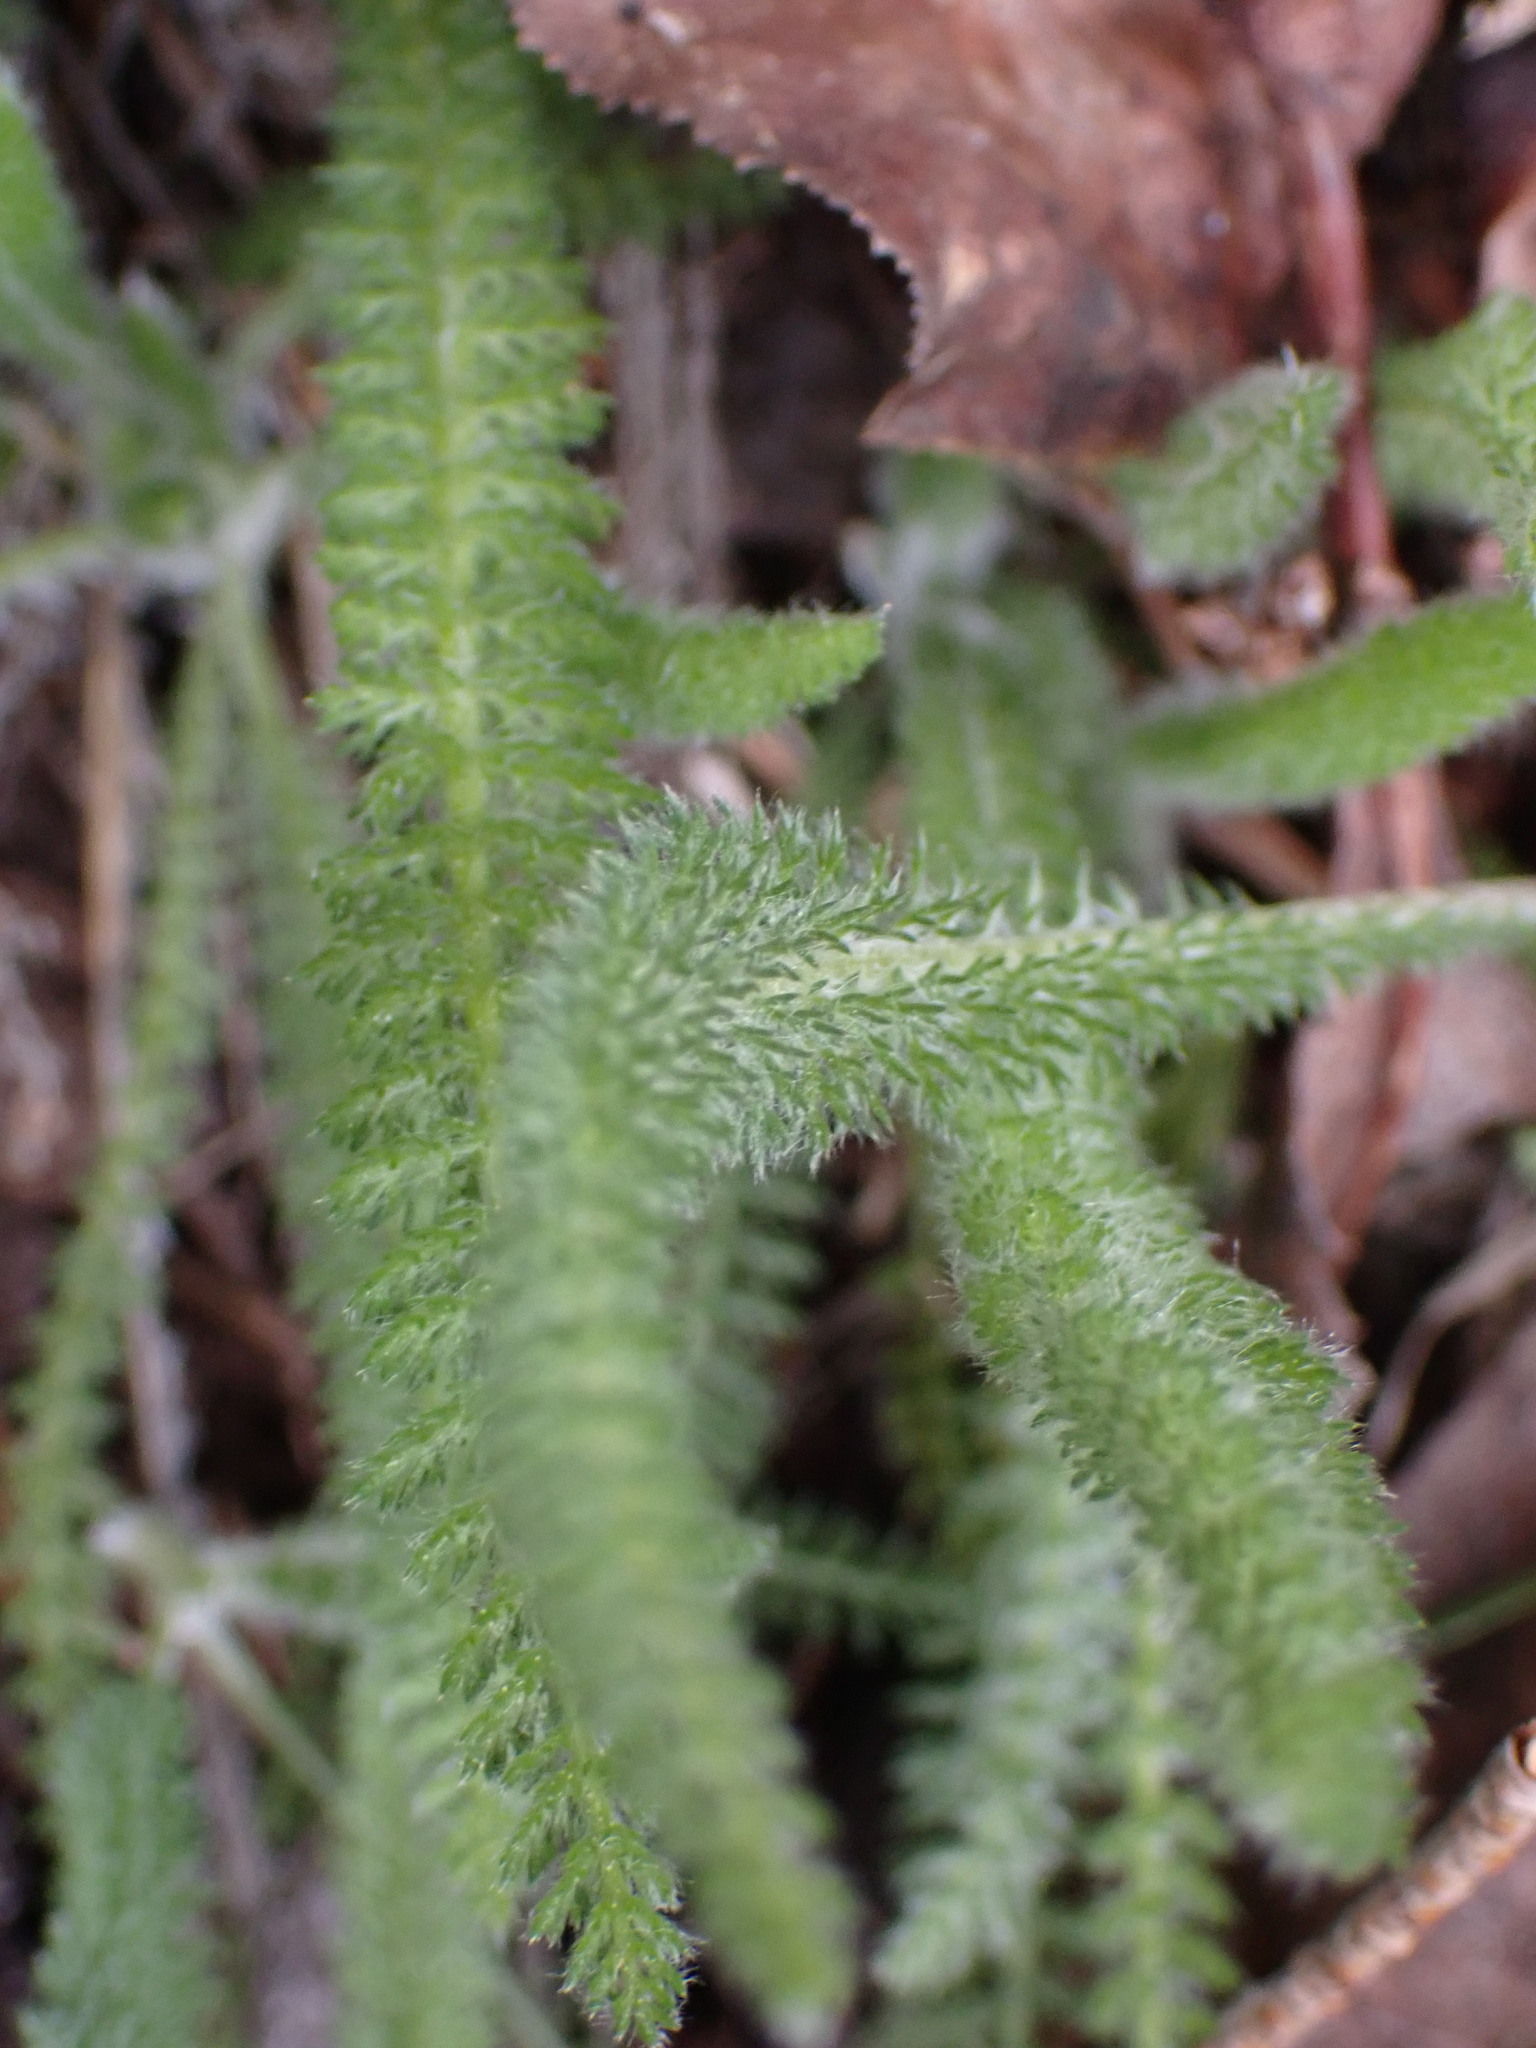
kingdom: Plantae
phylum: Tracheophyta
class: Magnoliopsida
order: Asterales
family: Asteraceae
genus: Achillea
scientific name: Achillea millefolium
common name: Yarrow
